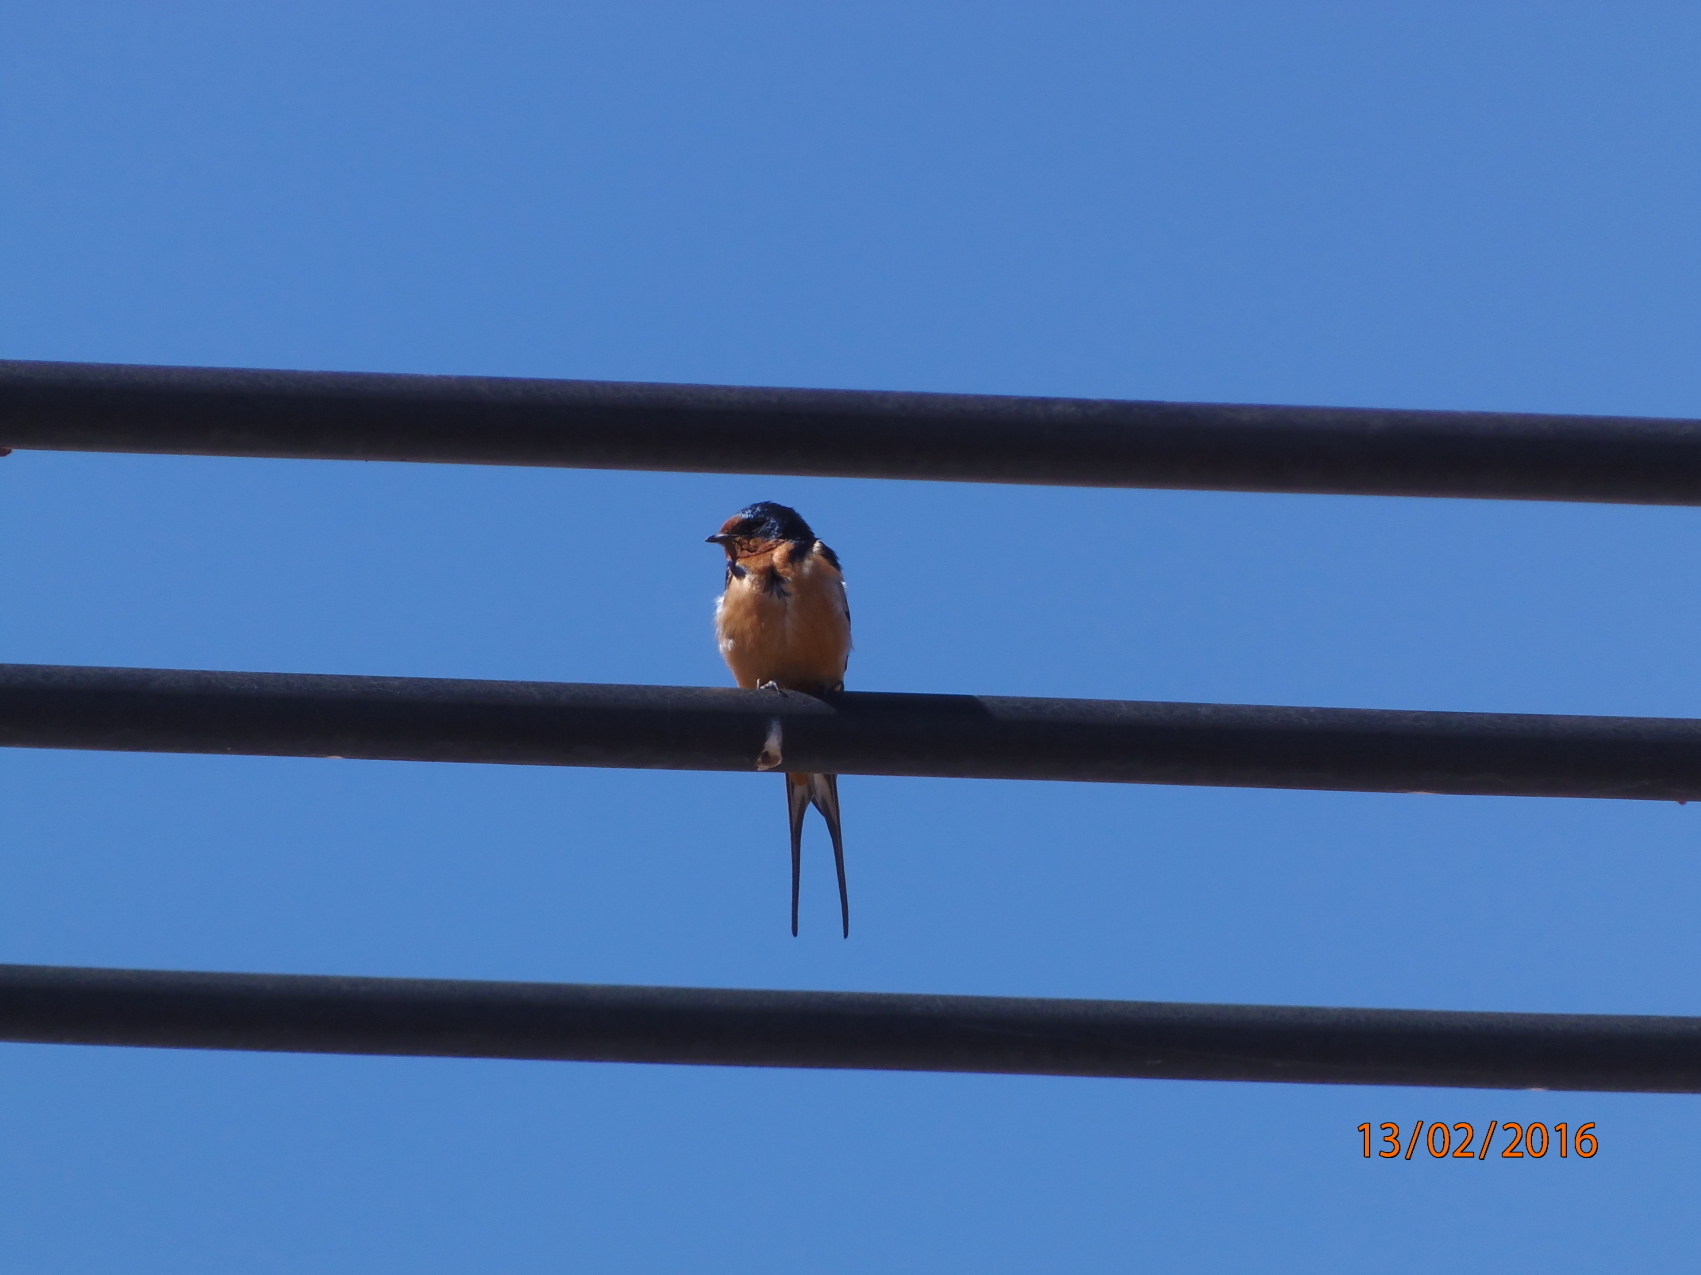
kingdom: Animalia
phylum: Chordata
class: Aves
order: Passeriformes
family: Hirundinidae
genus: Hirundo
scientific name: Hirundo rustica
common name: Barn swallow
